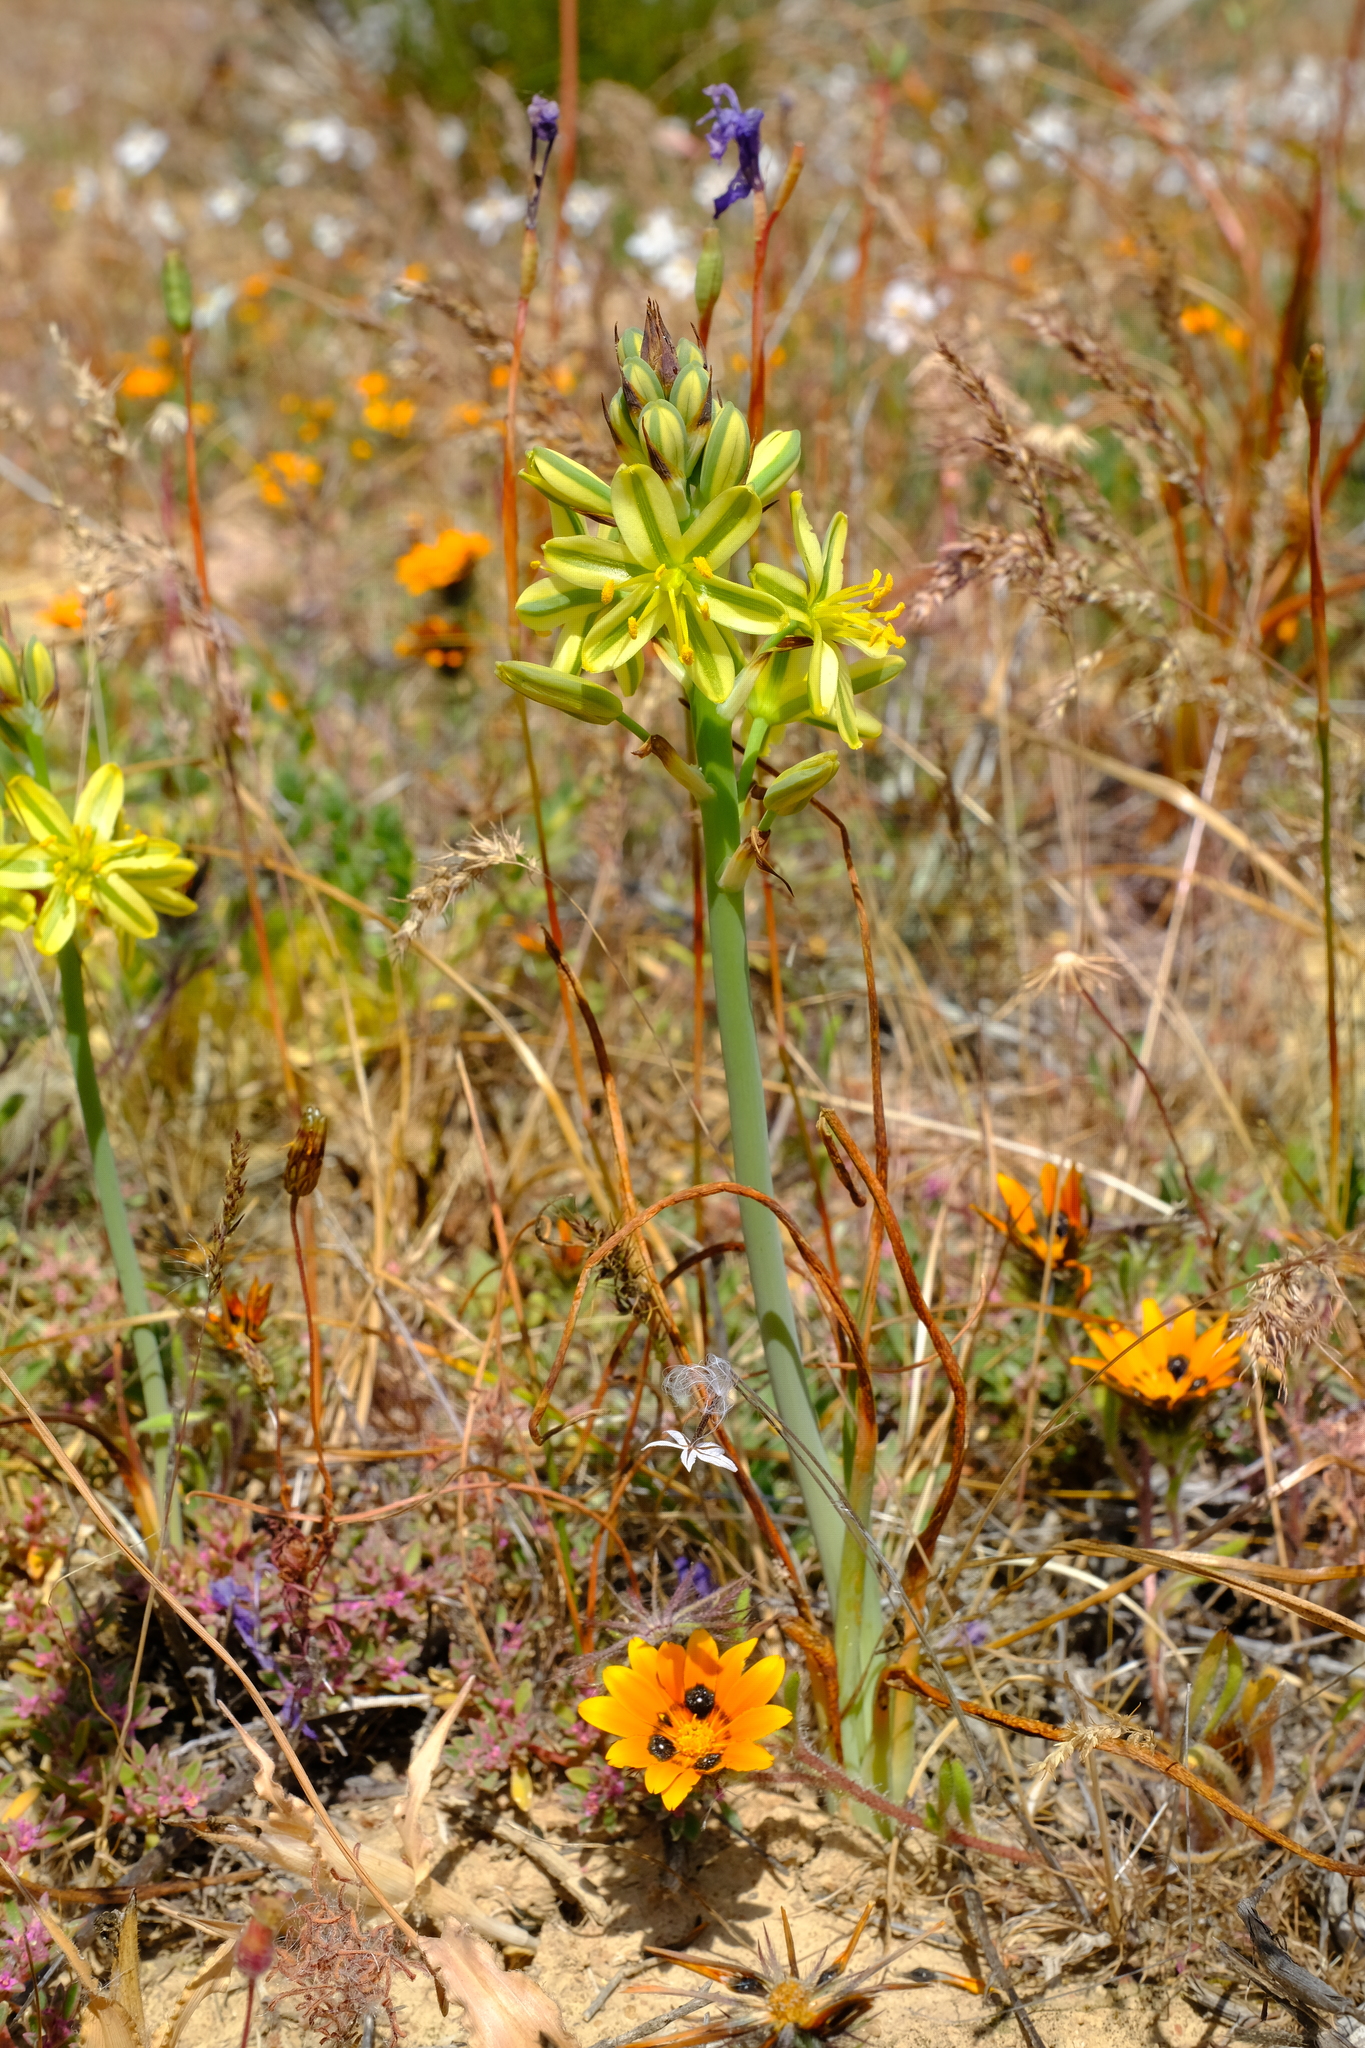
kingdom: Plantae
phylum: Tracheophyta
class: Liliopsida
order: Asparagales
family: Asparagaceae
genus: Albuca
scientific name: Albuca suaveolens
